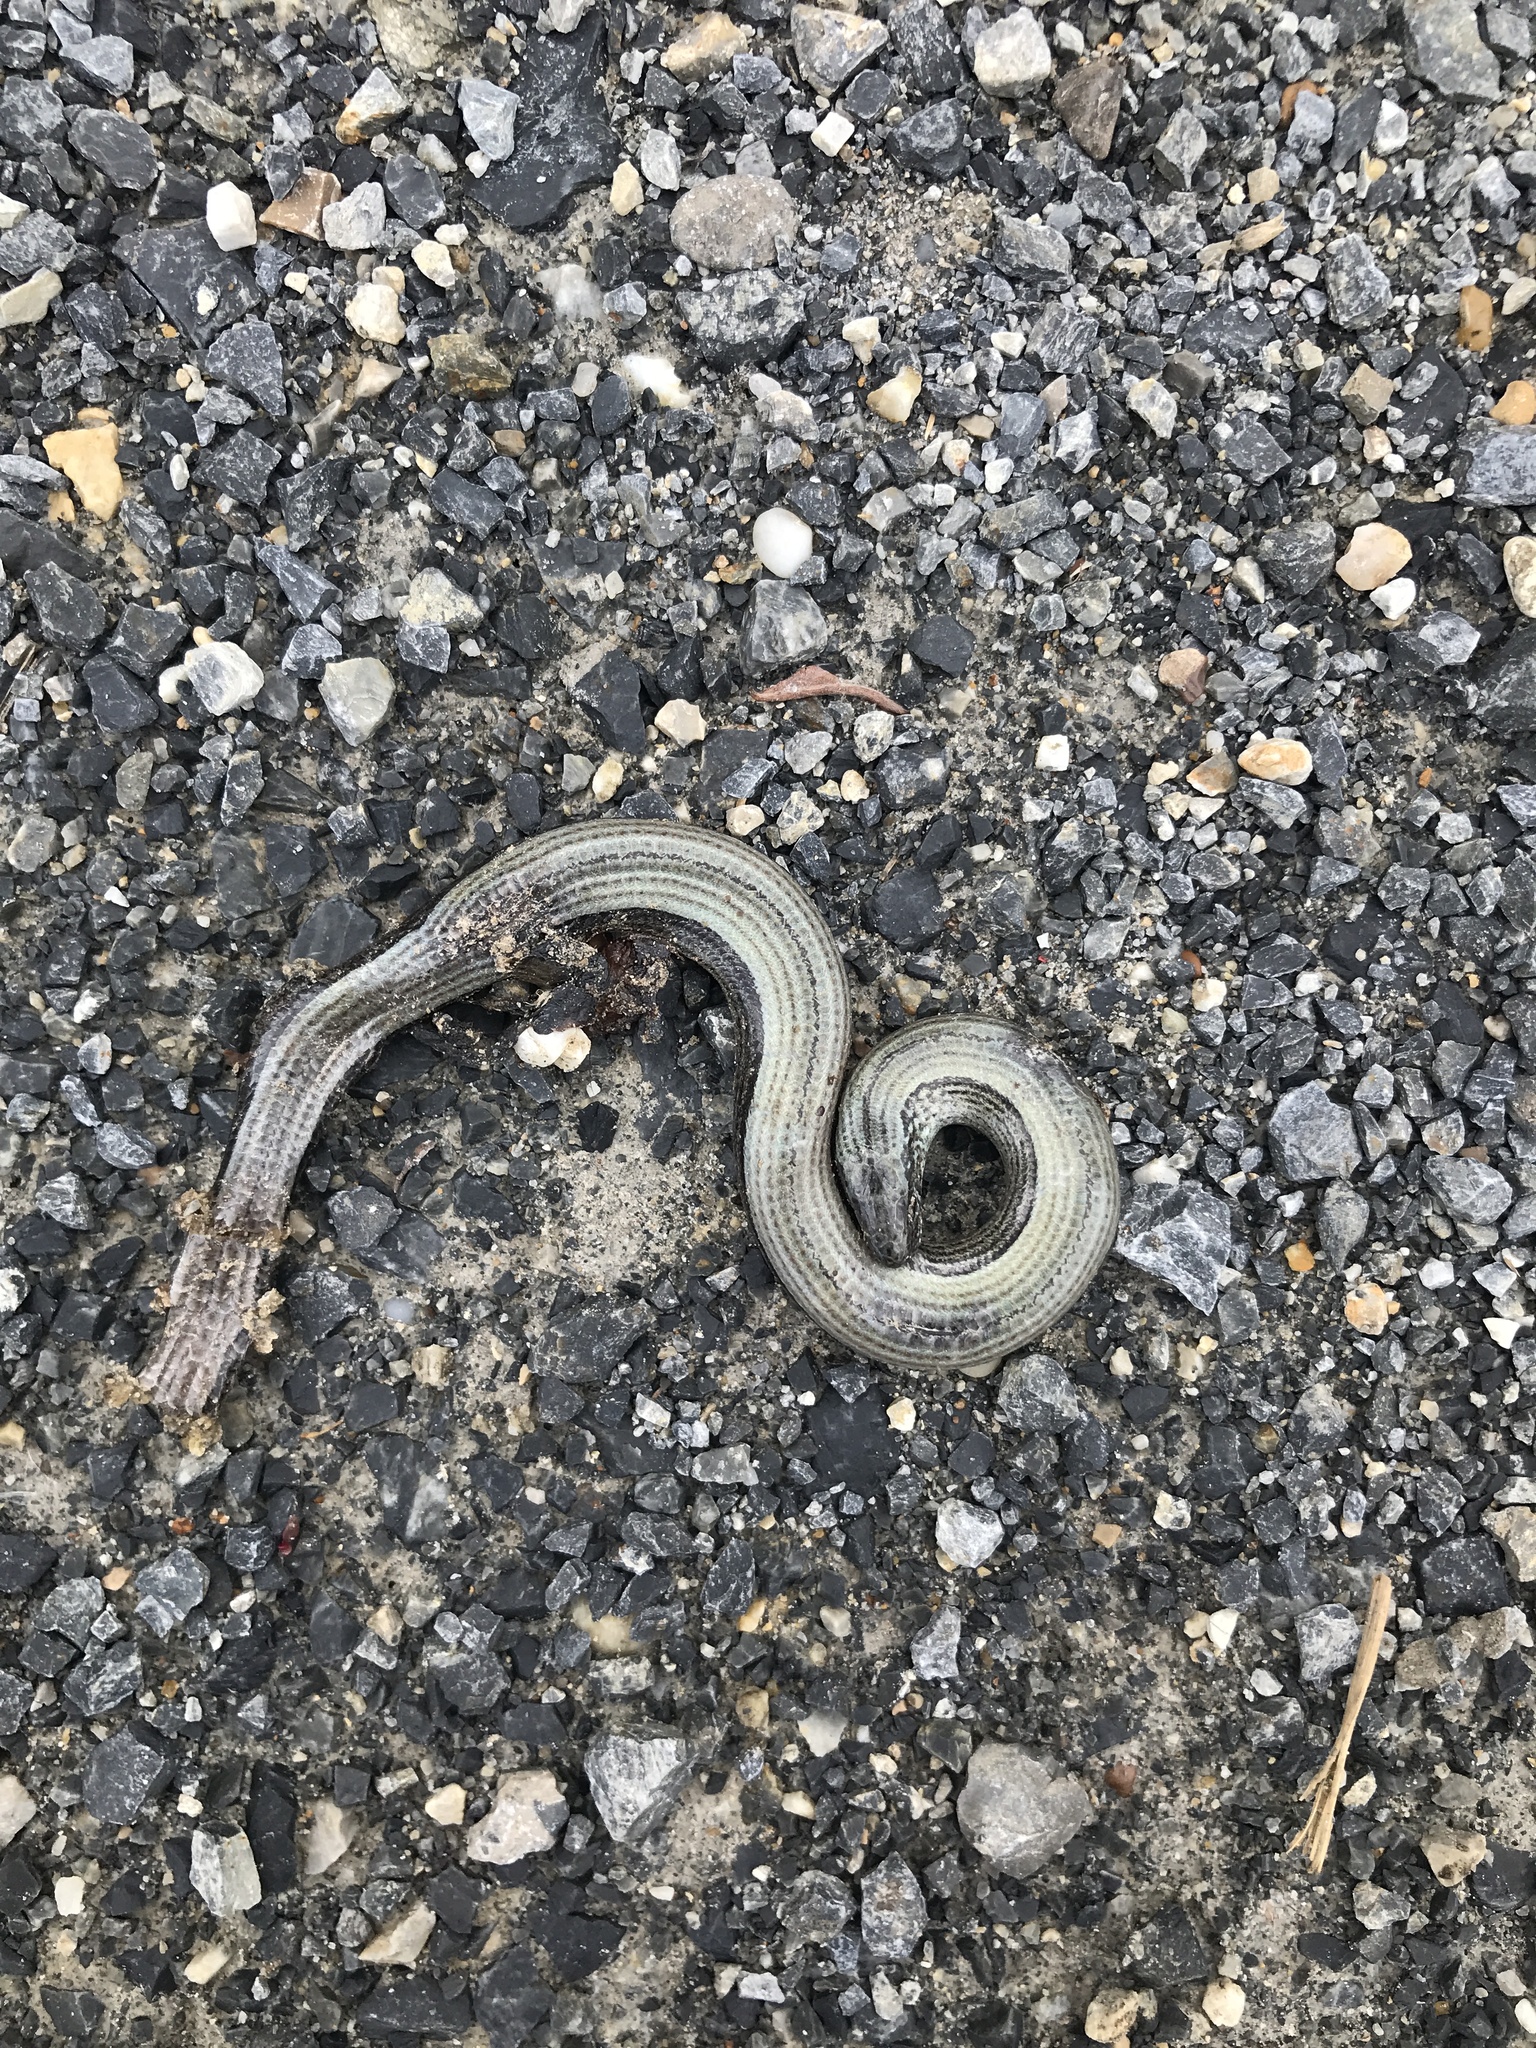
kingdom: Animalia
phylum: Chordata
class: Squamata
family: Anguidae
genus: Anguis
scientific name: Anguis fragilis
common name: Slow worm
